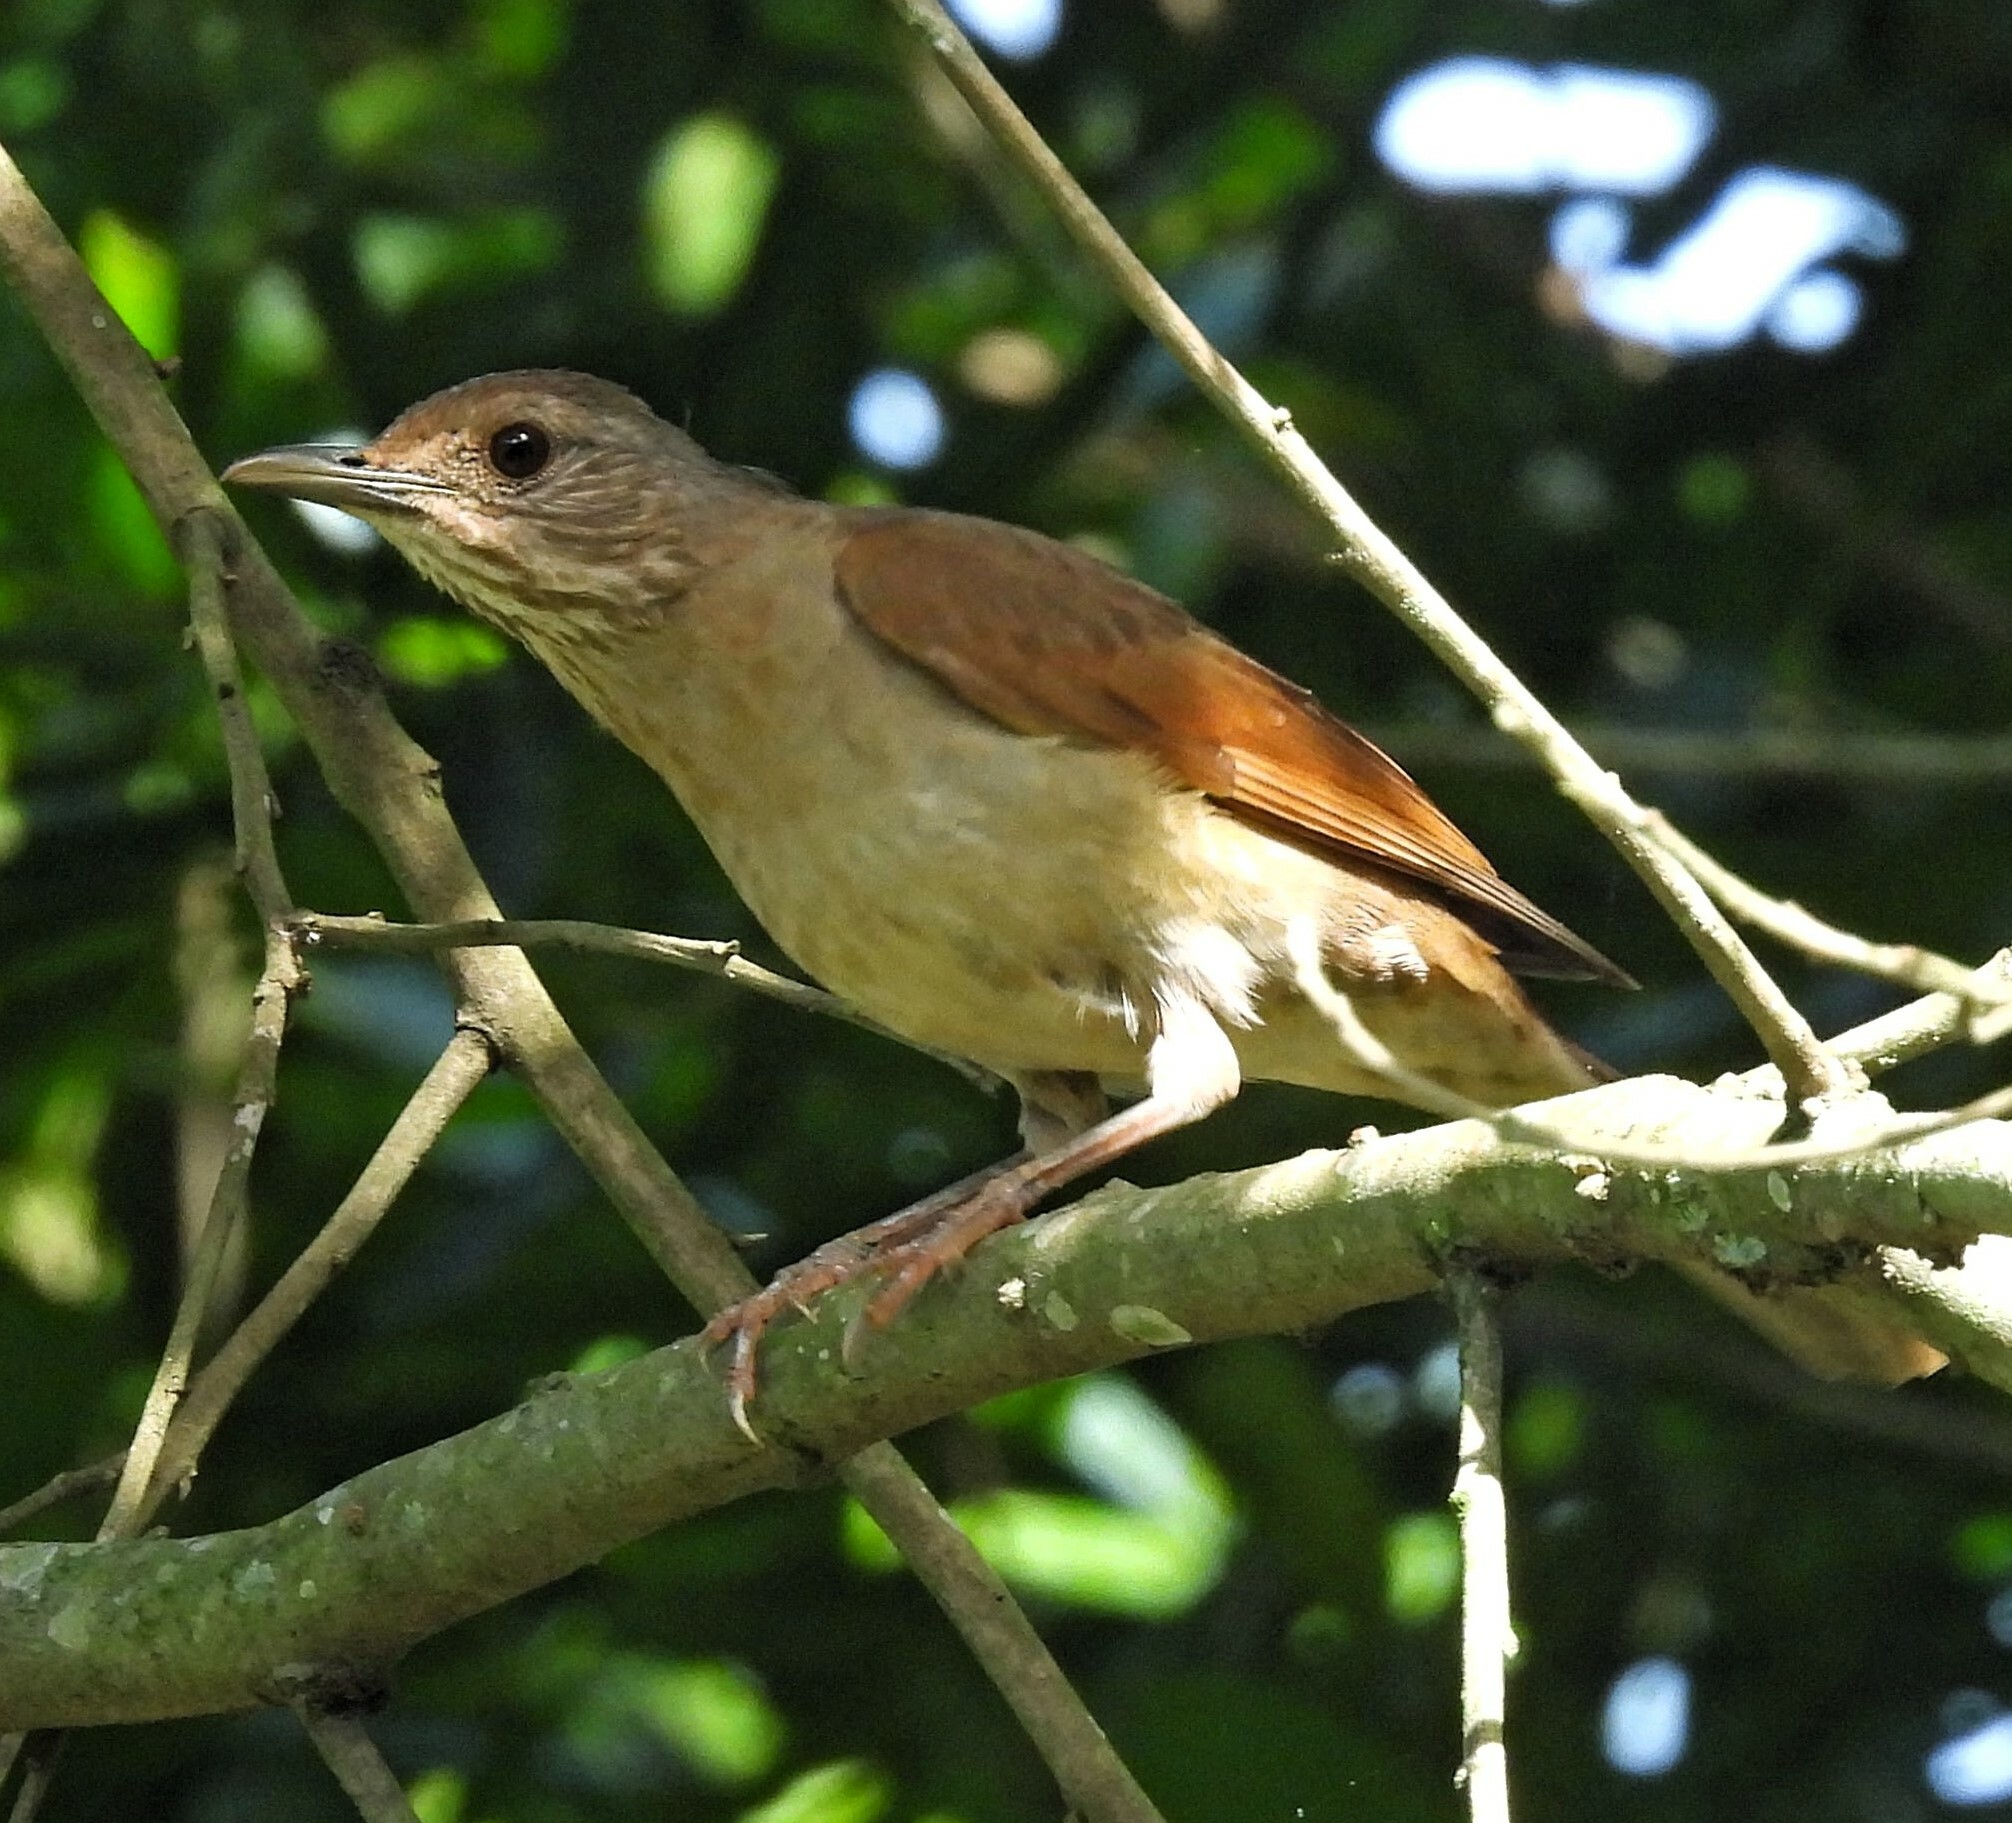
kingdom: Animalia
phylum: Chordata
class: Aves
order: Passeriformes
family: Turdidae
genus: Turdus
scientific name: Turdus leucomelas
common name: Pale-breasted thrush
